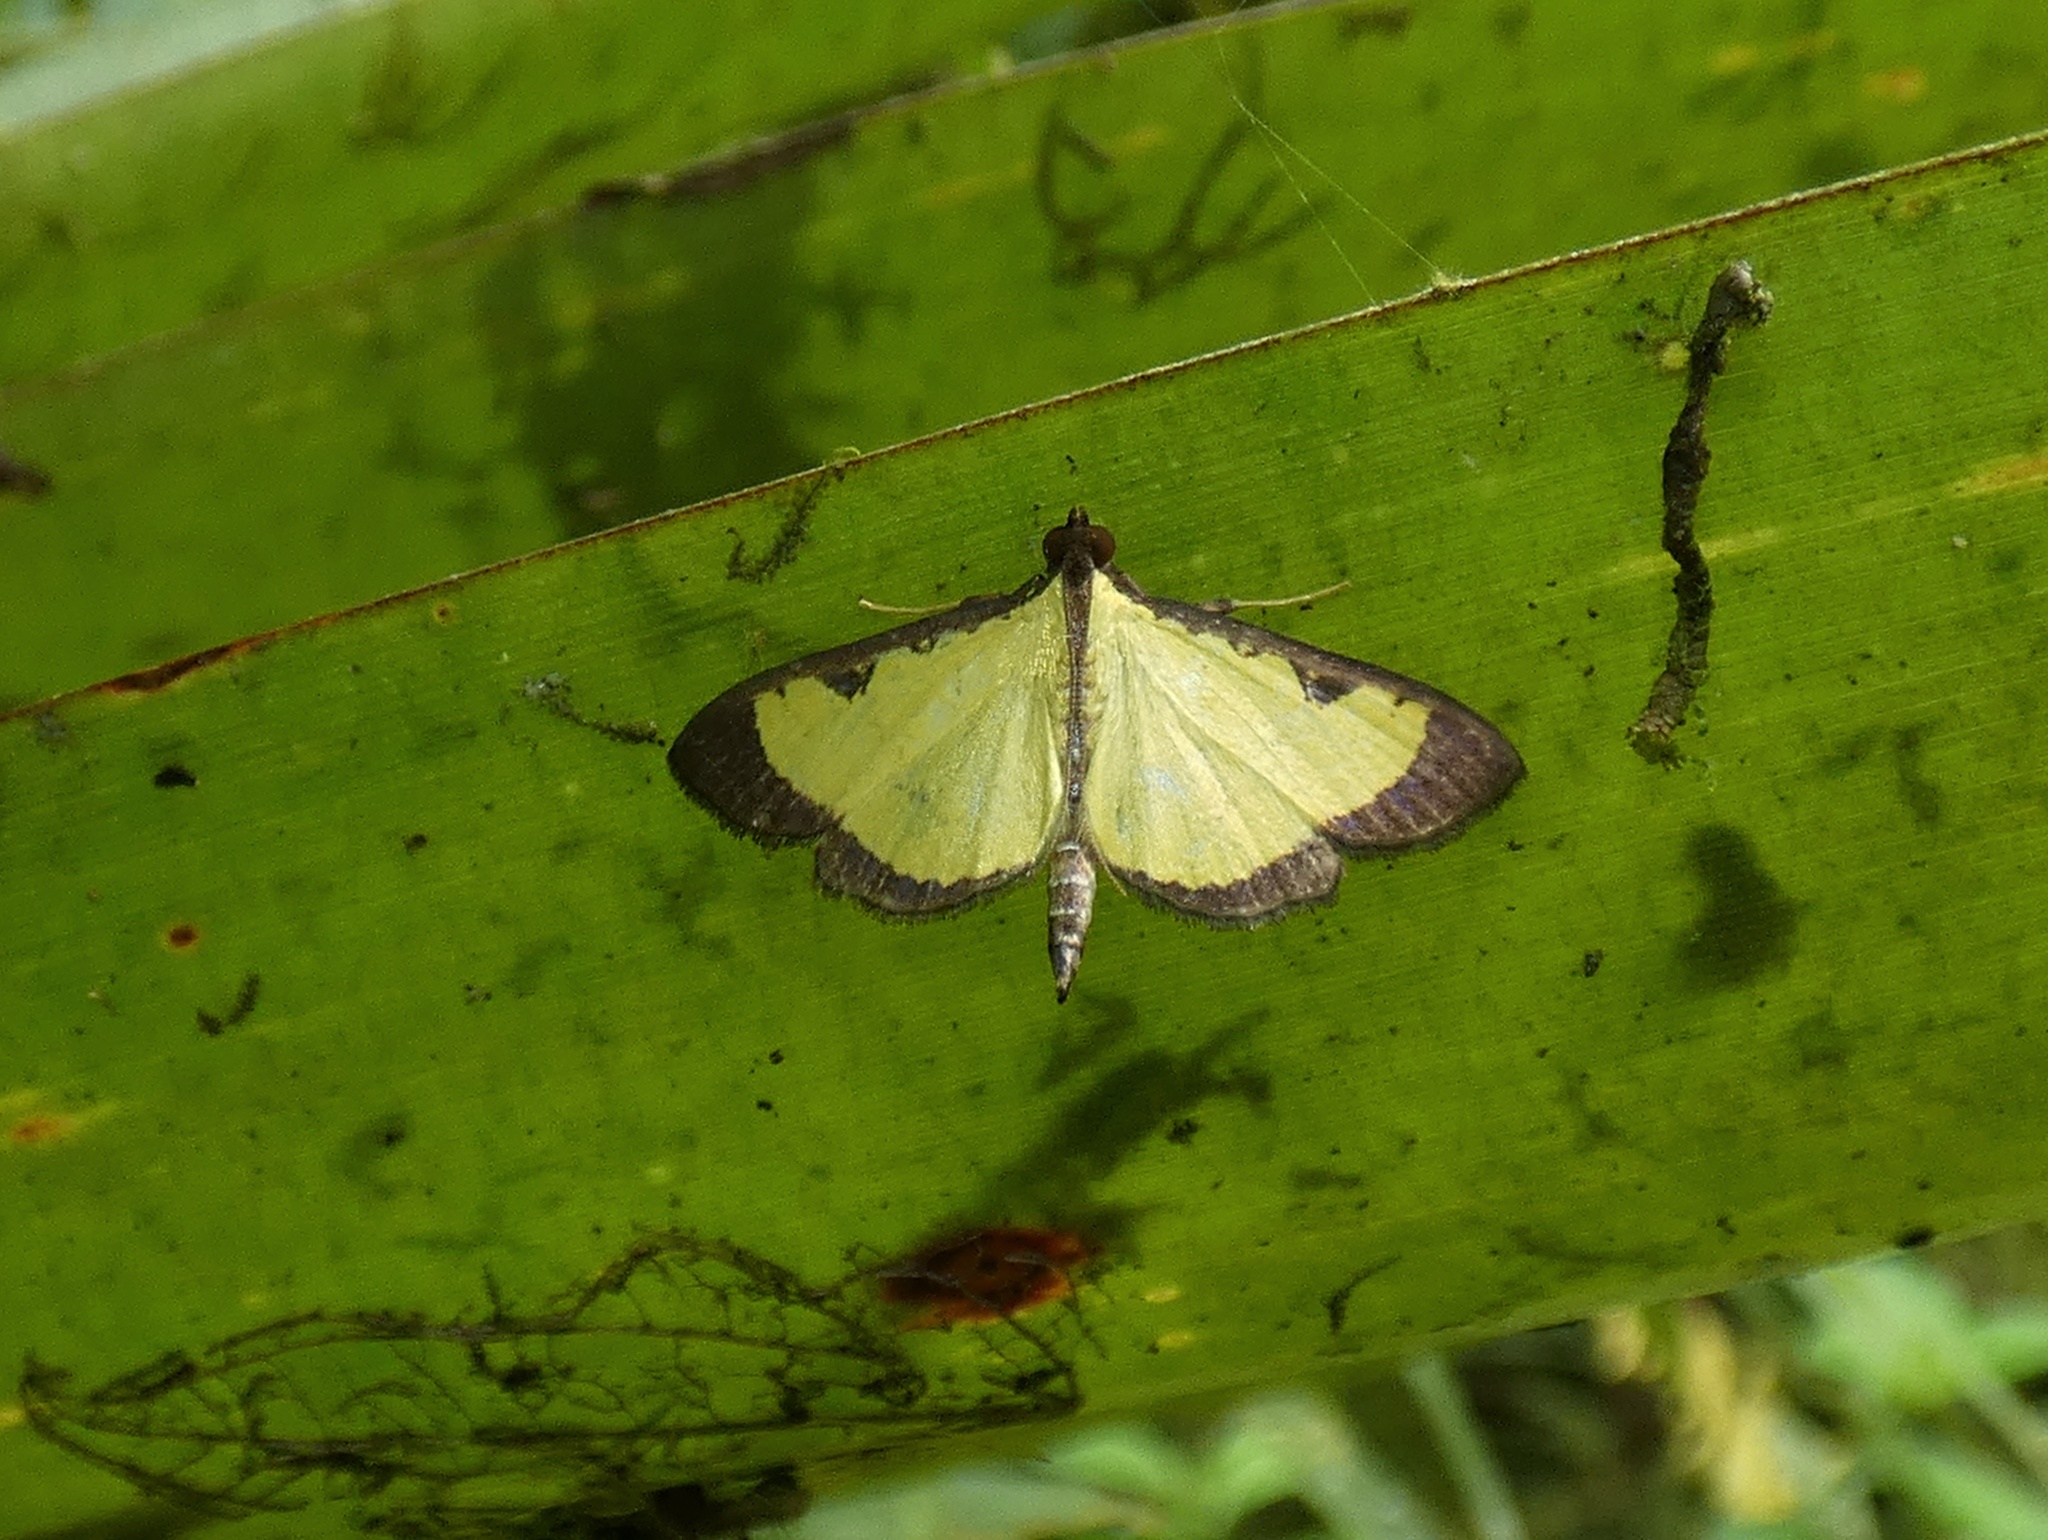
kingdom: Animalia
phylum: Arthropoda
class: Insecta
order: Lepidoptera
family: Crambidae
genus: Goniorhynchus
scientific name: Goniorhynchus
